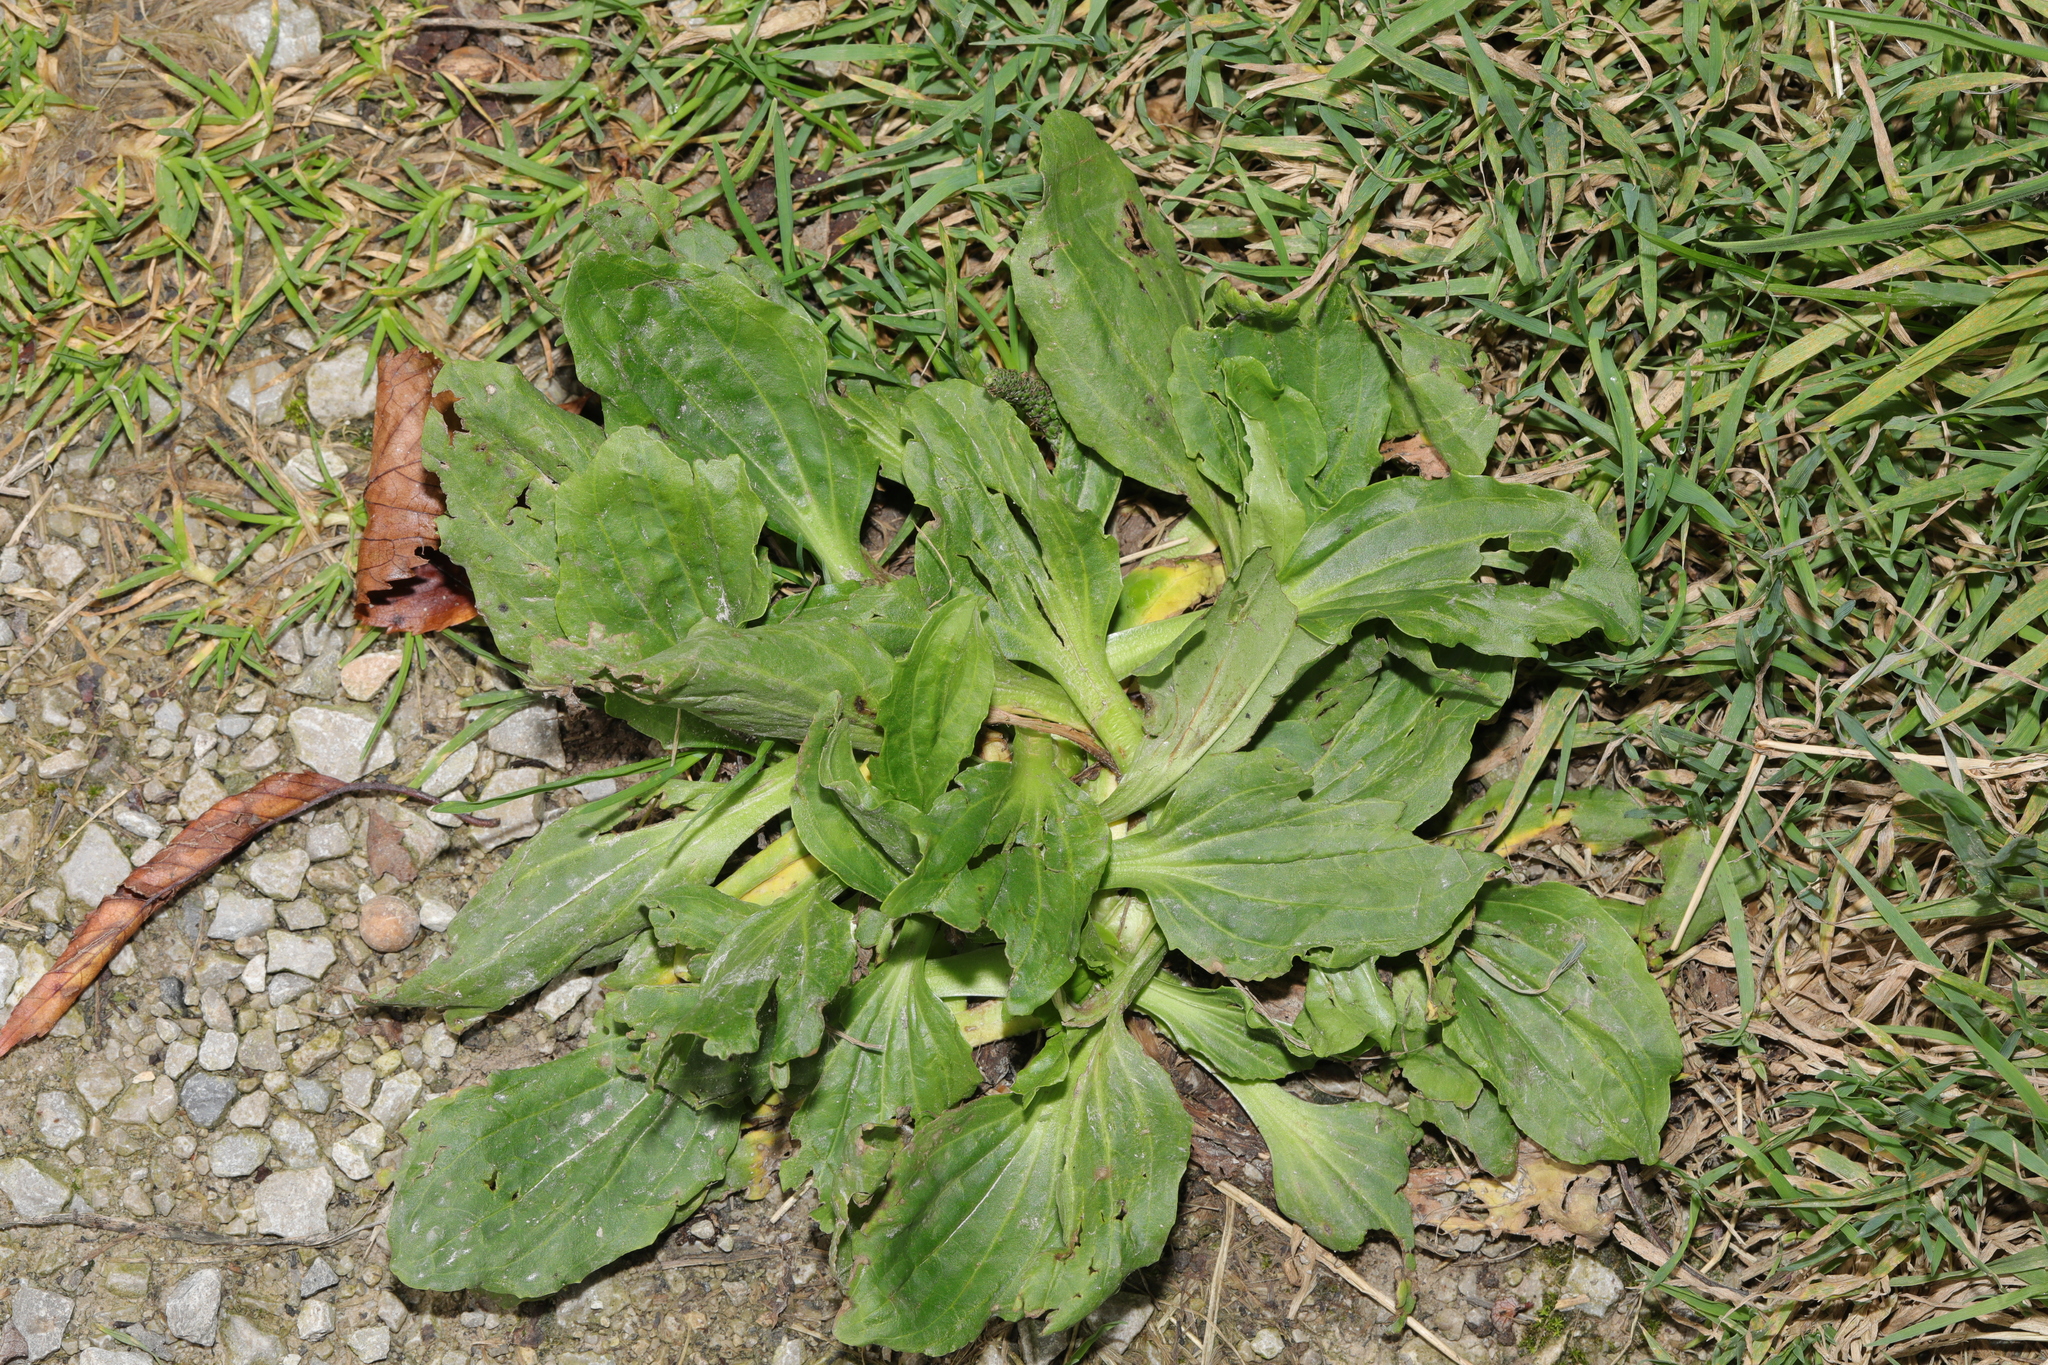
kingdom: Plantae
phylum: Tracheophyta
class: Magnoliopsida
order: Lamiales
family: Plantaginaceae
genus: Plantago
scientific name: Plantago major
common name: Common plantain
